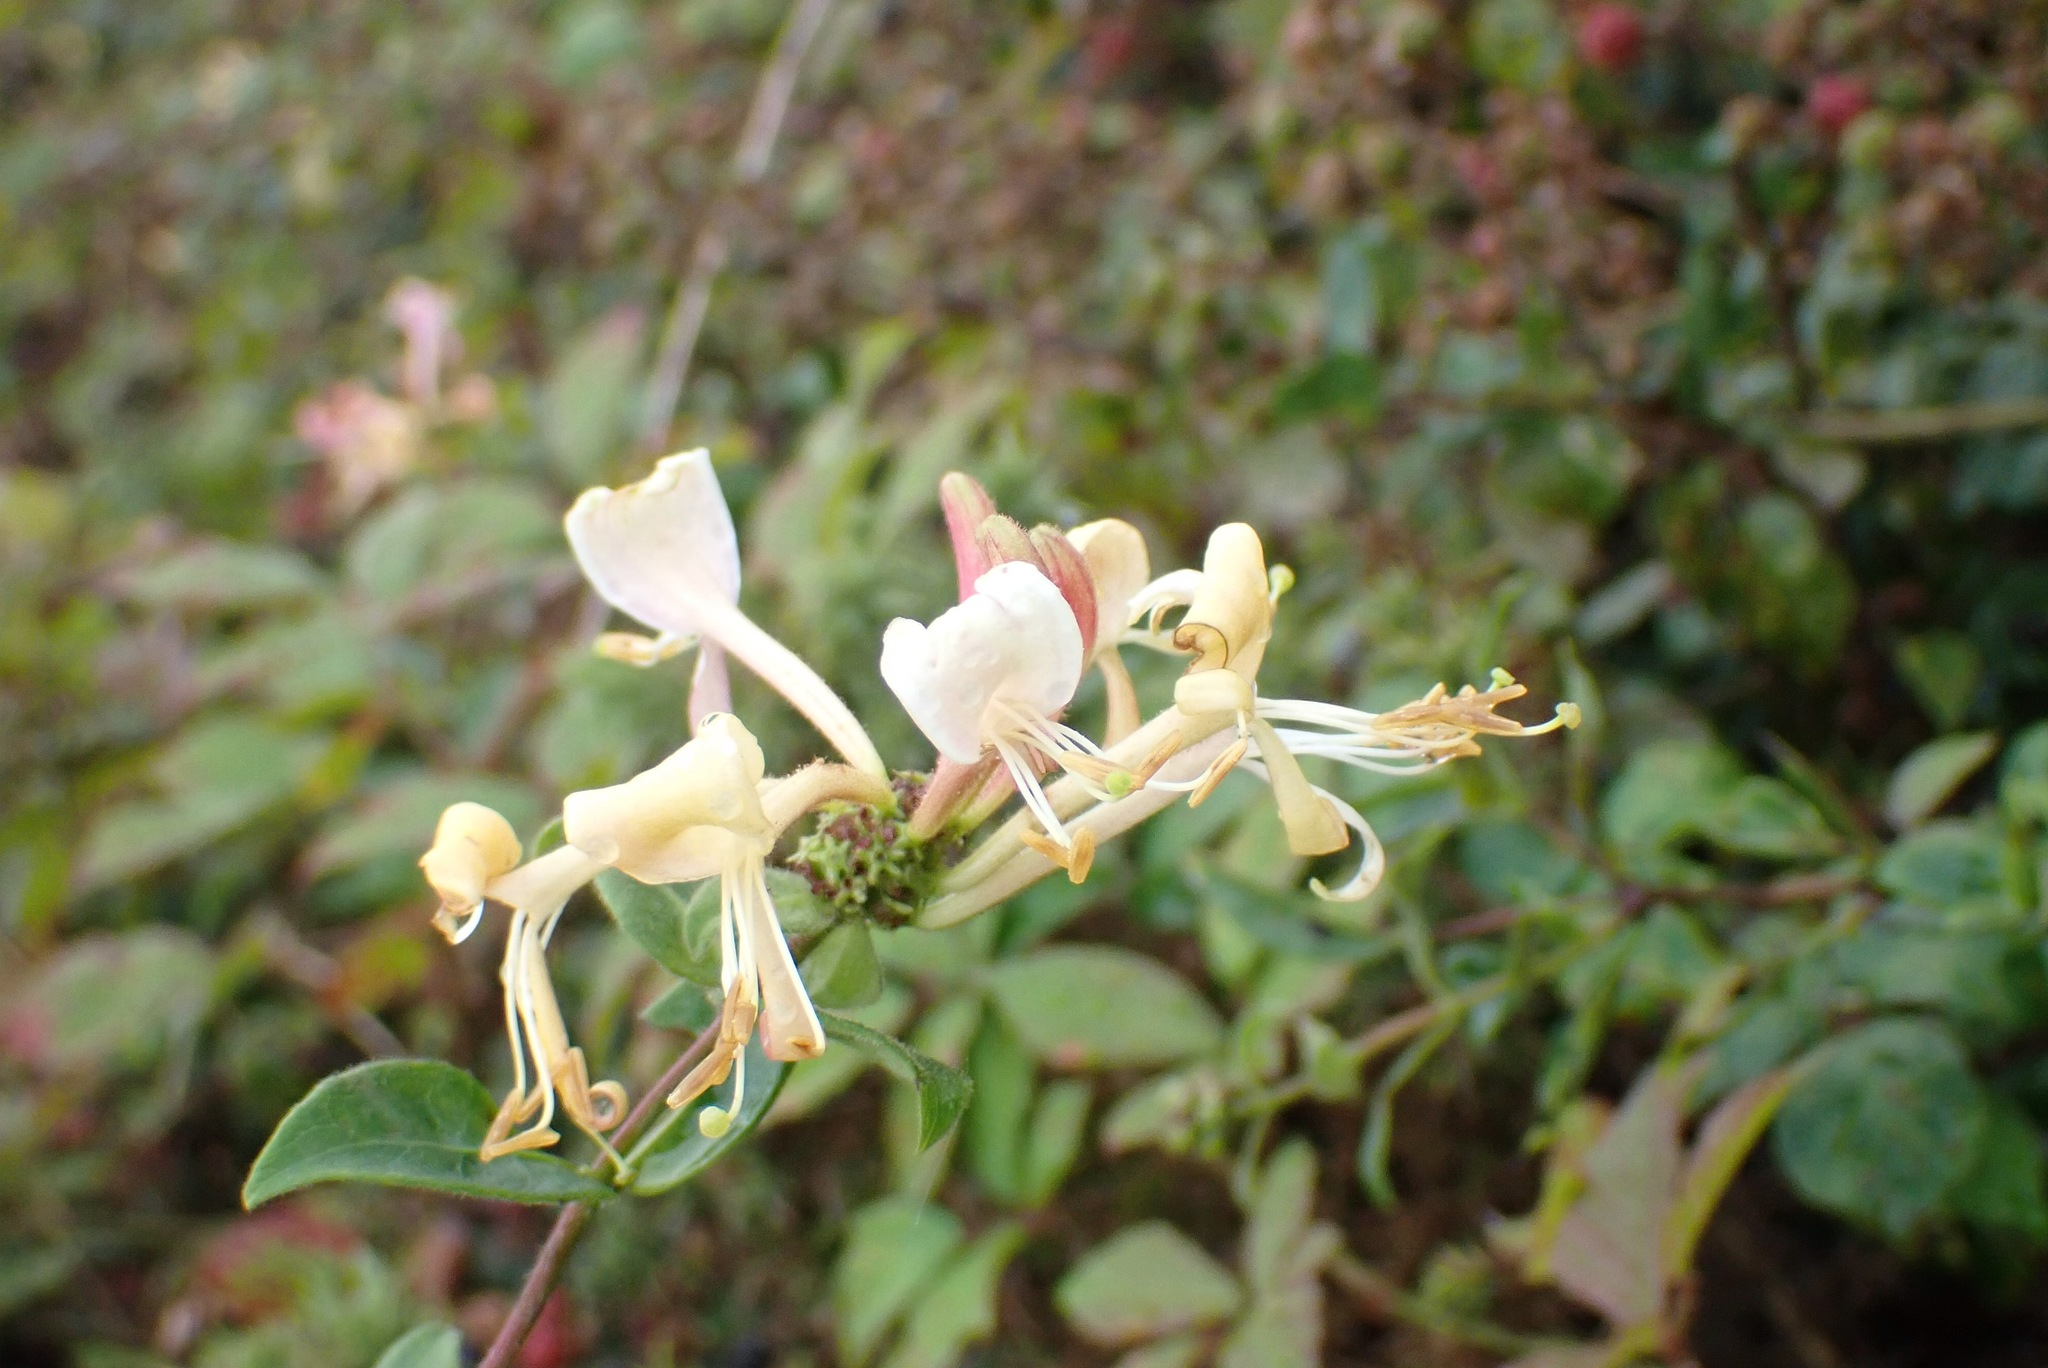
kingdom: Plantae
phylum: Tracheophyta
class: Magnoliopsida
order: Dipsacales
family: Caprifoliaceae
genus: Lonicera
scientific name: Lonicera periclymenum
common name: European honeysuckle
